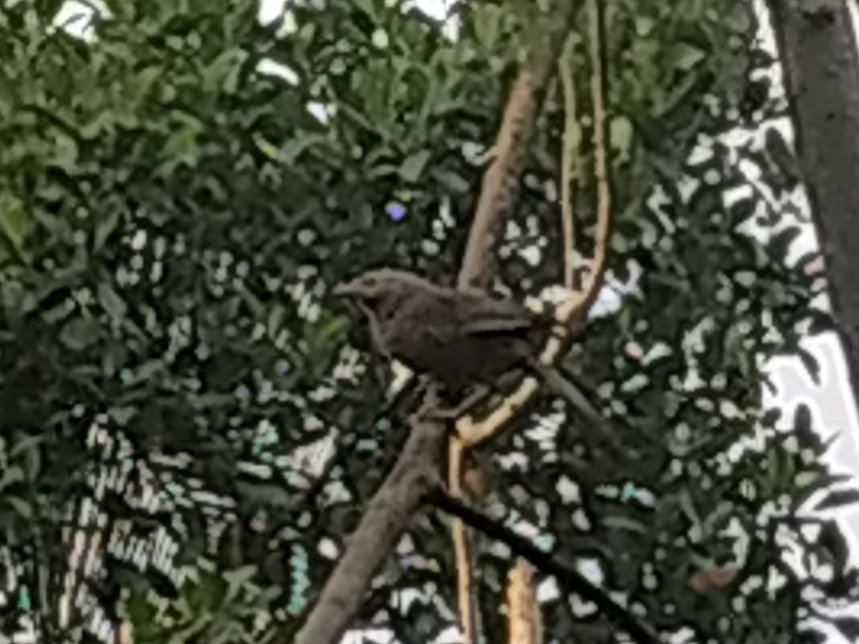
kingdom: Animalia
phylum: Chordata
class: Aves
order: Passeriformes
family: Leiothrichidae
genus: Turdoides
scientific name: Turdoides affinis
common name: Yellow-billed babbler
